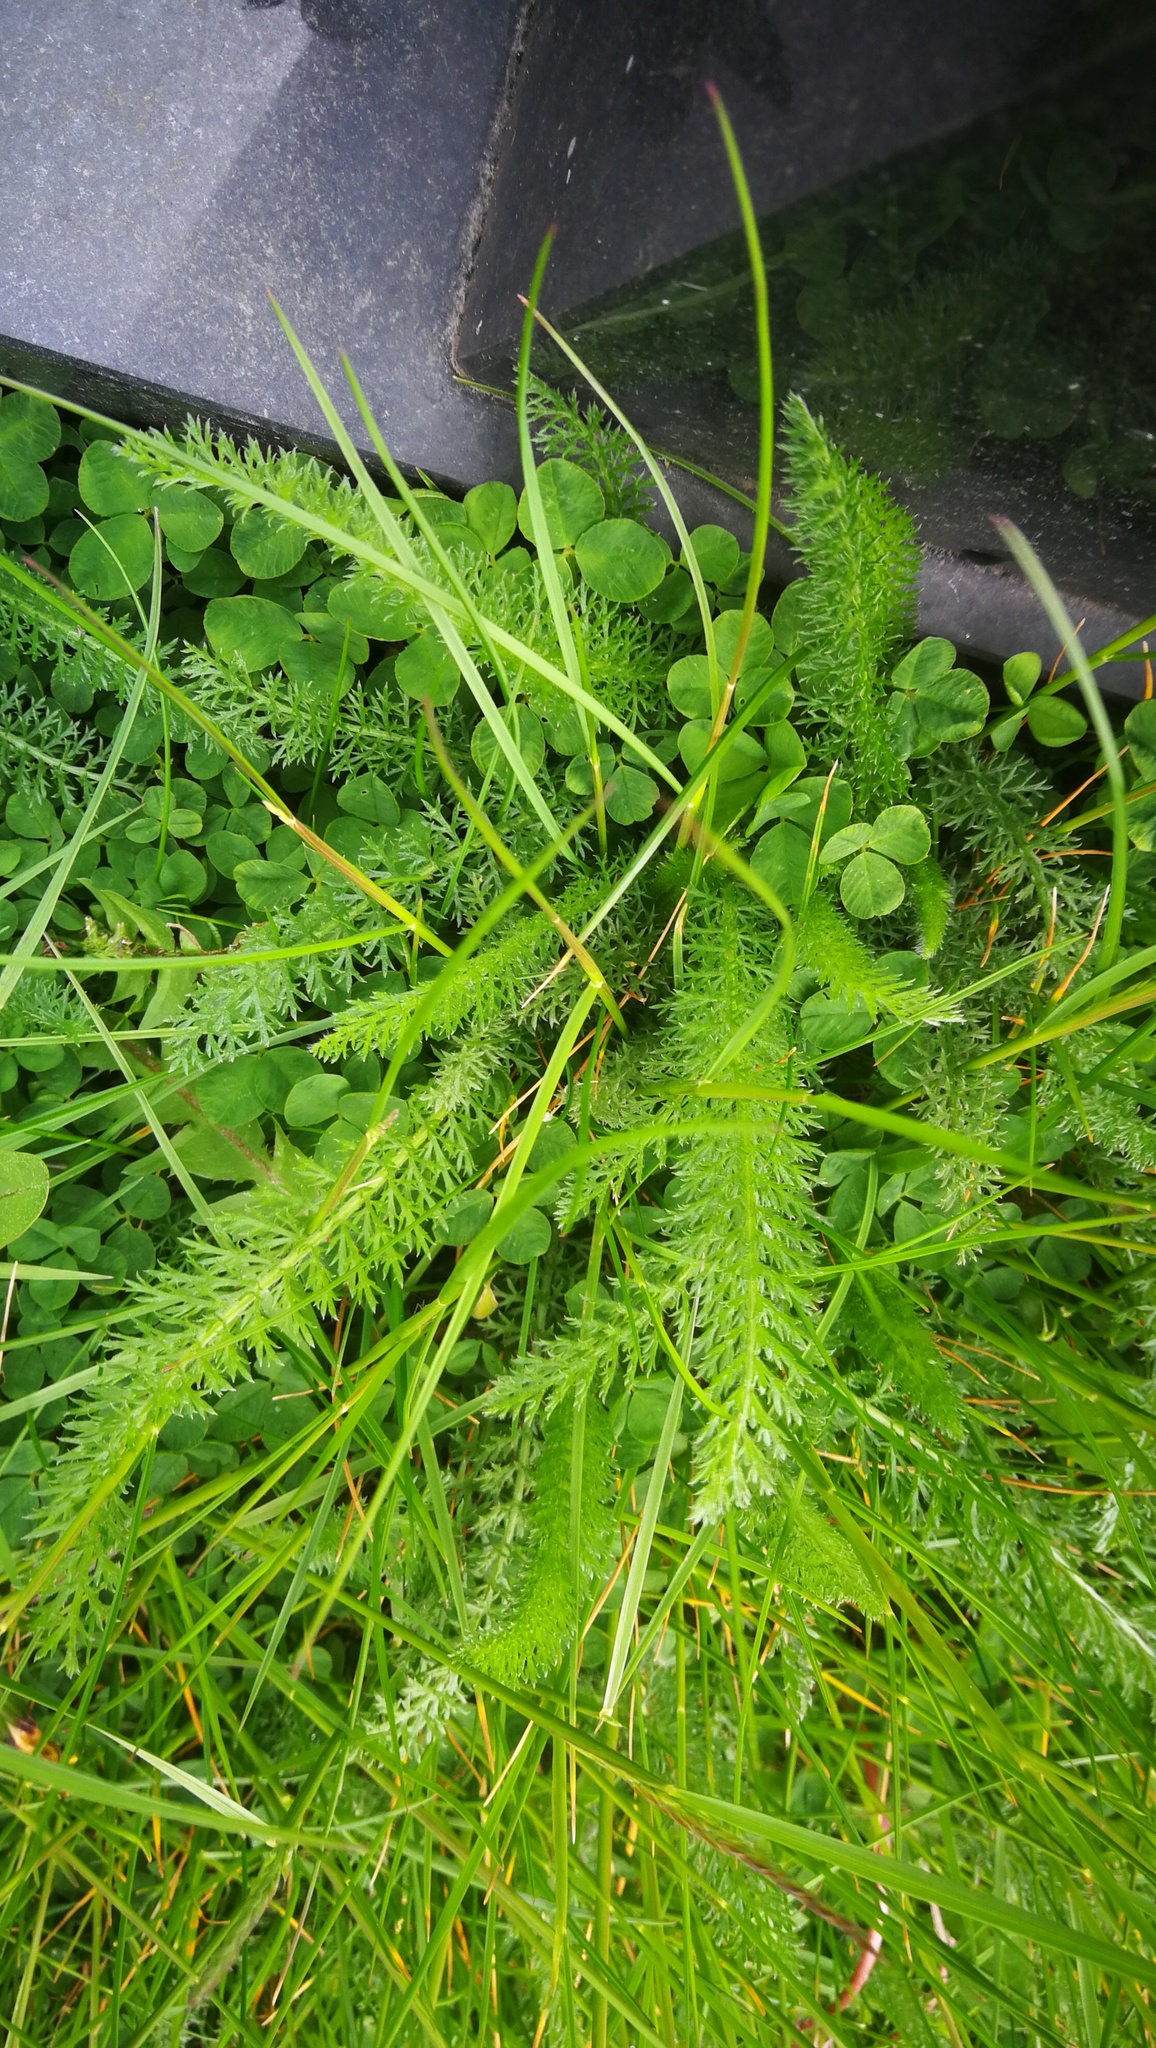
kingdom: Plantae
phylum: Tracheophyta
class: Magnoliopsida
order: Asterales
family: Asteraceae
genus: Achillea
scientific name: Achillea millefolium
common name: Yarrow
